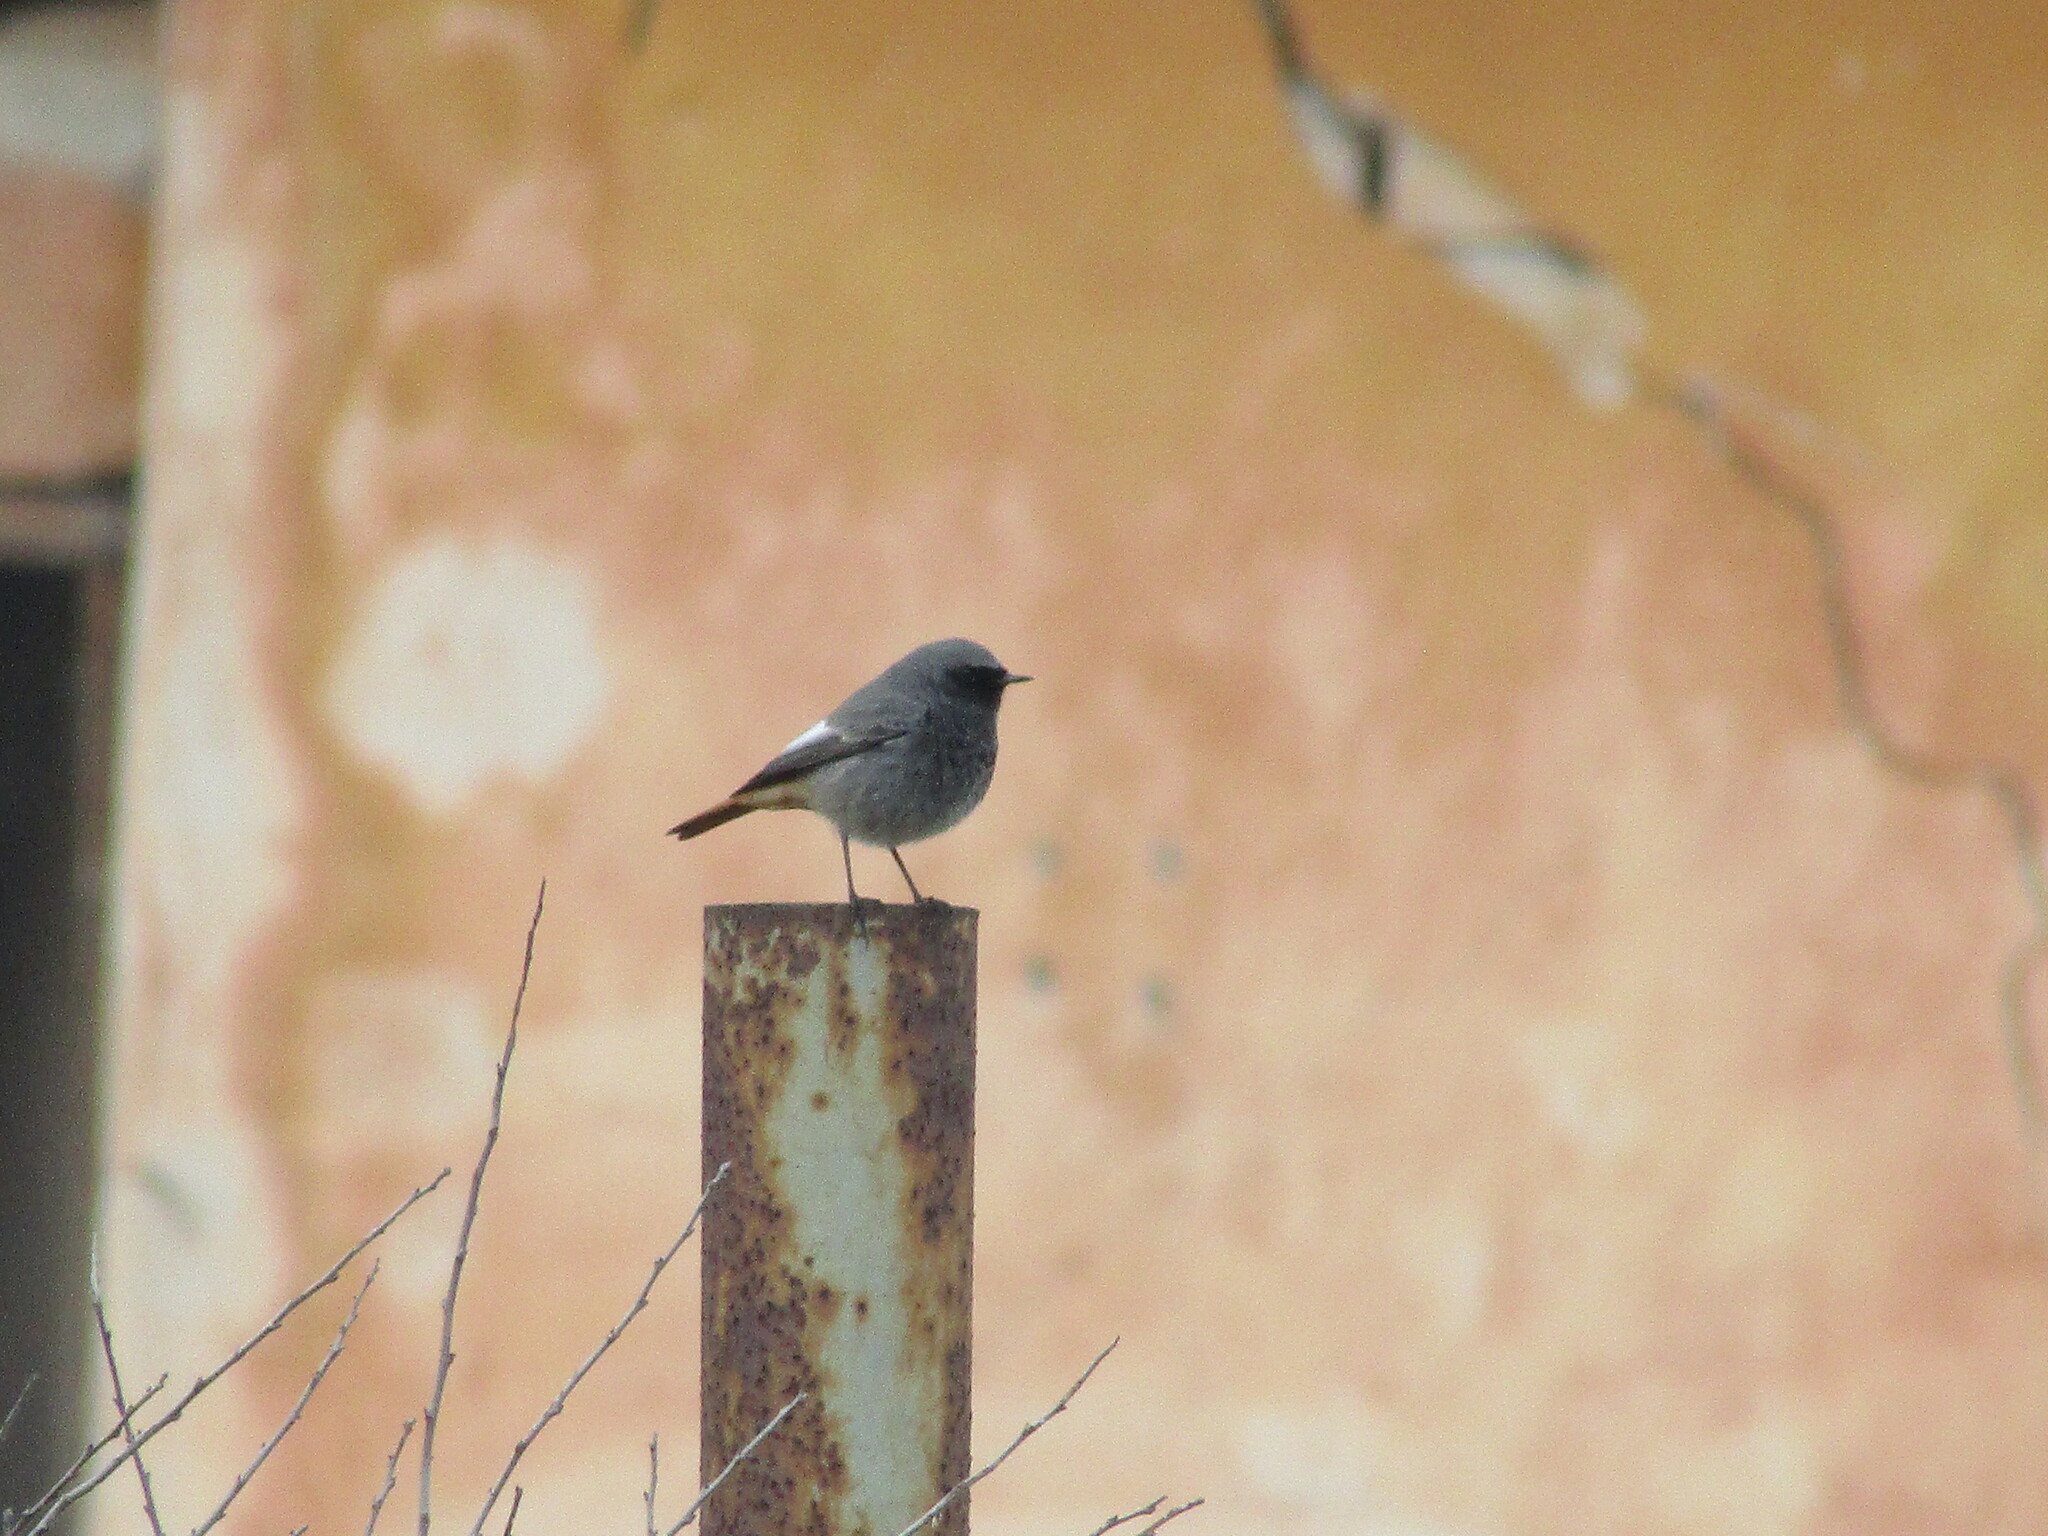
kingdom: Animalia
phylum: Chordata
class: Aves
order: Passeriformes
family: Muscicapidae
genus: Phoenicurus
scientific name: Phoenicurus ochruros
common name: Black redstart
